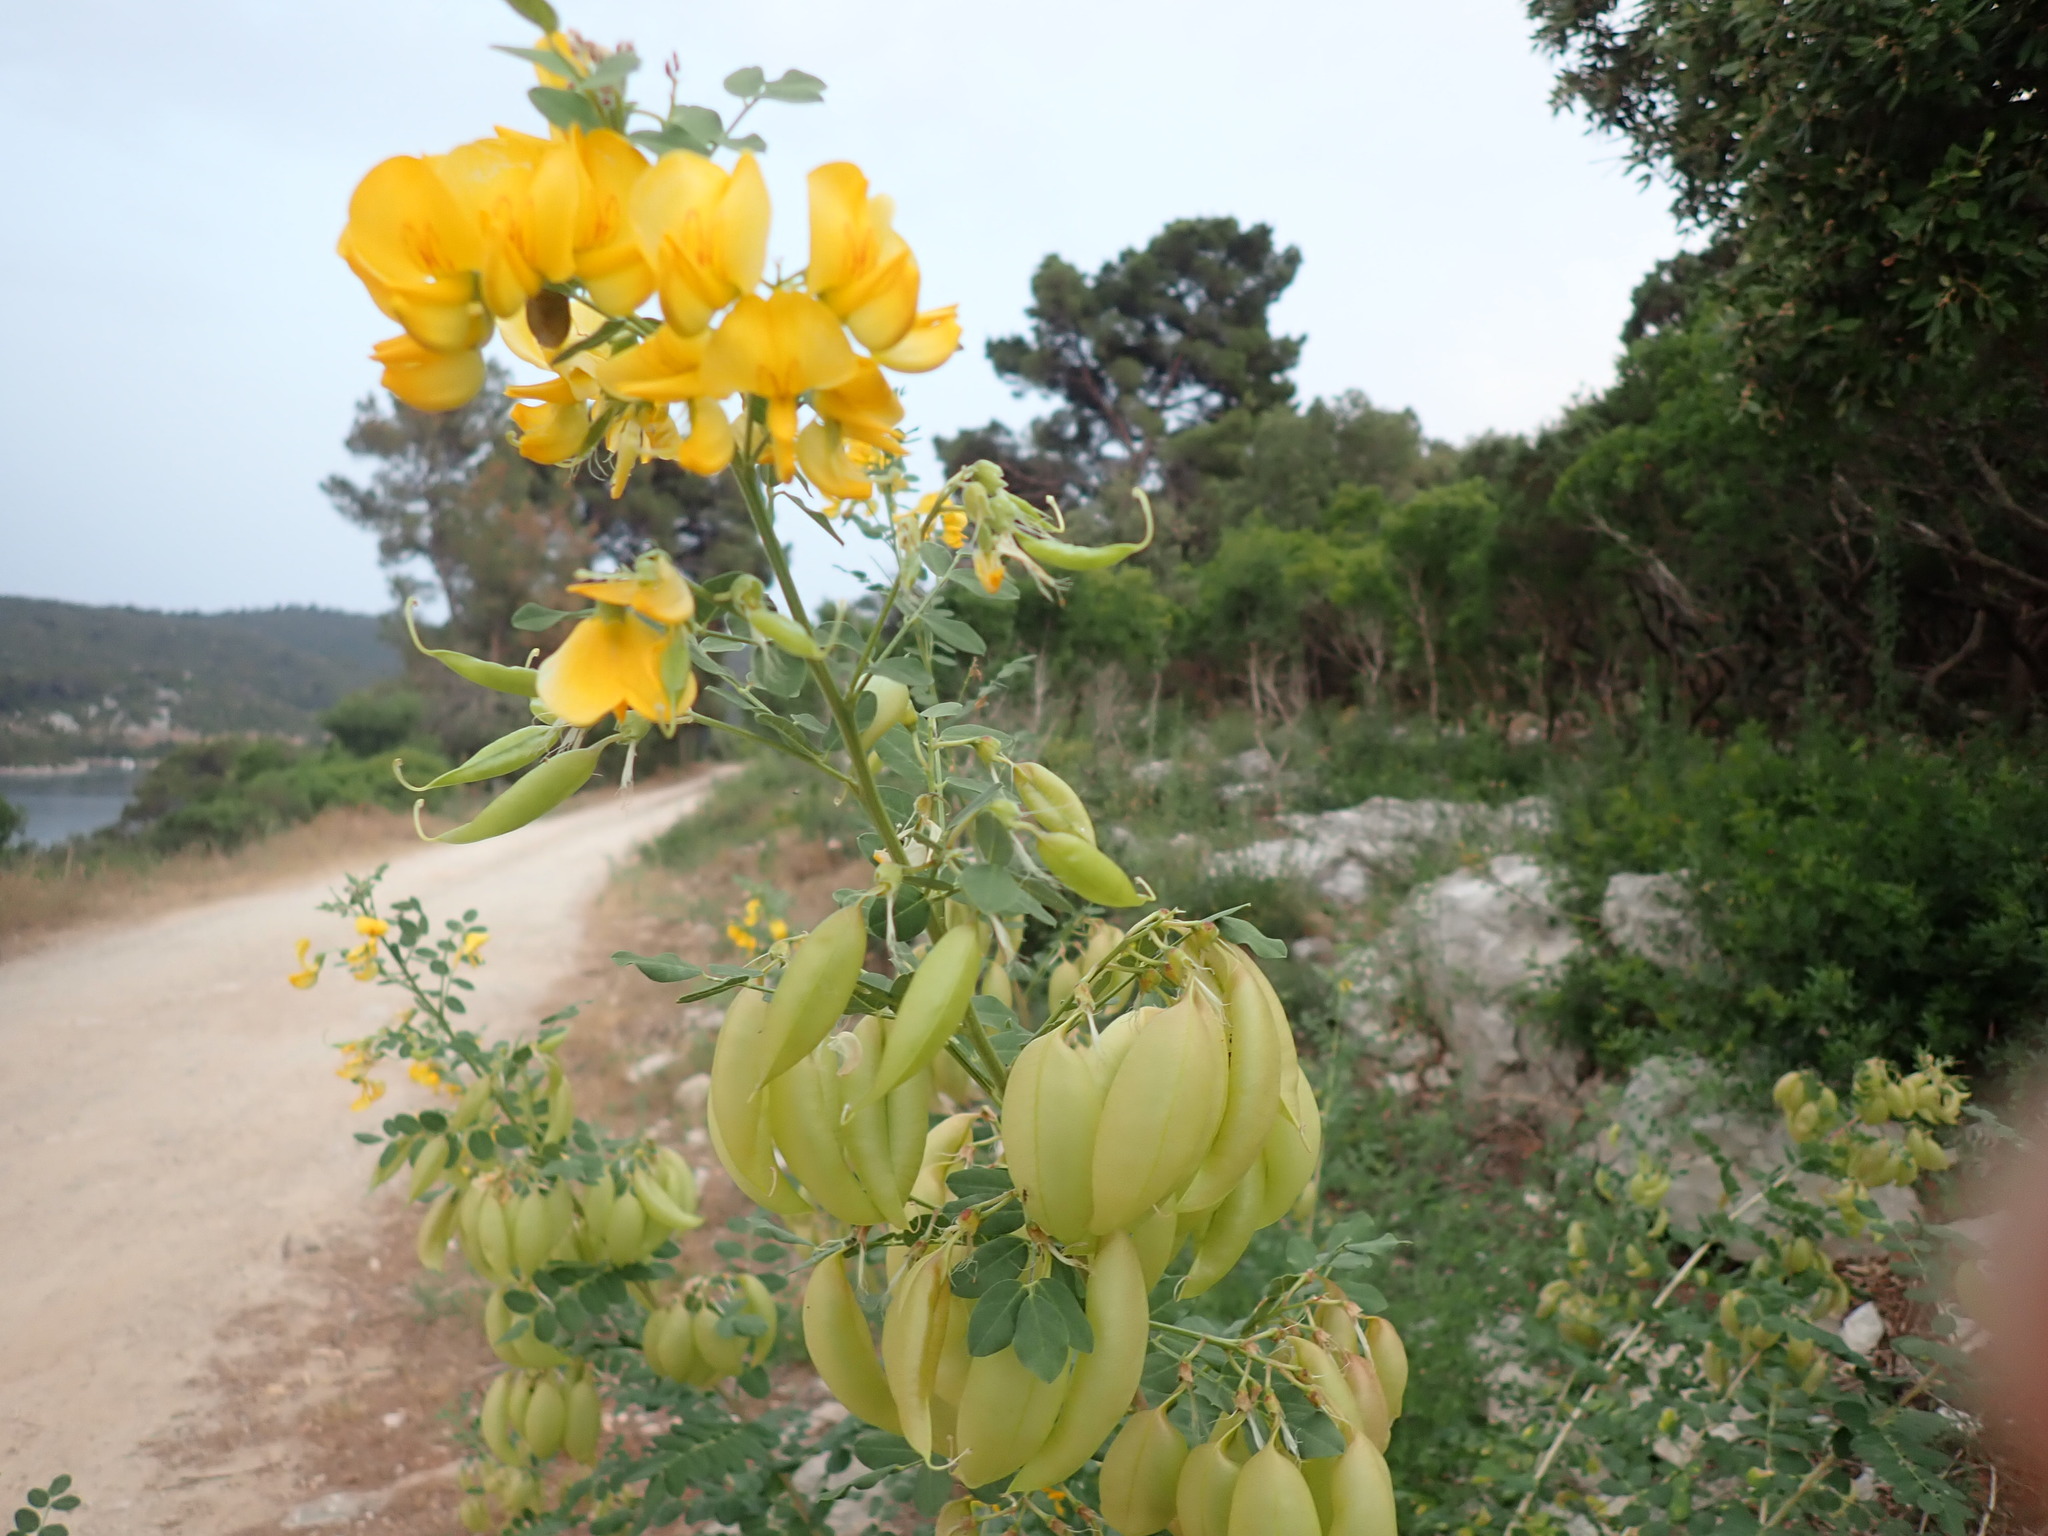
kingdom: Plantae
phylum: Tracheophyta
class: Magnoliopsida
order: Fabales
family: Fabaceae
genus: Colutea
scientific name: Colutea arborescens
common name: Bladder-senna
